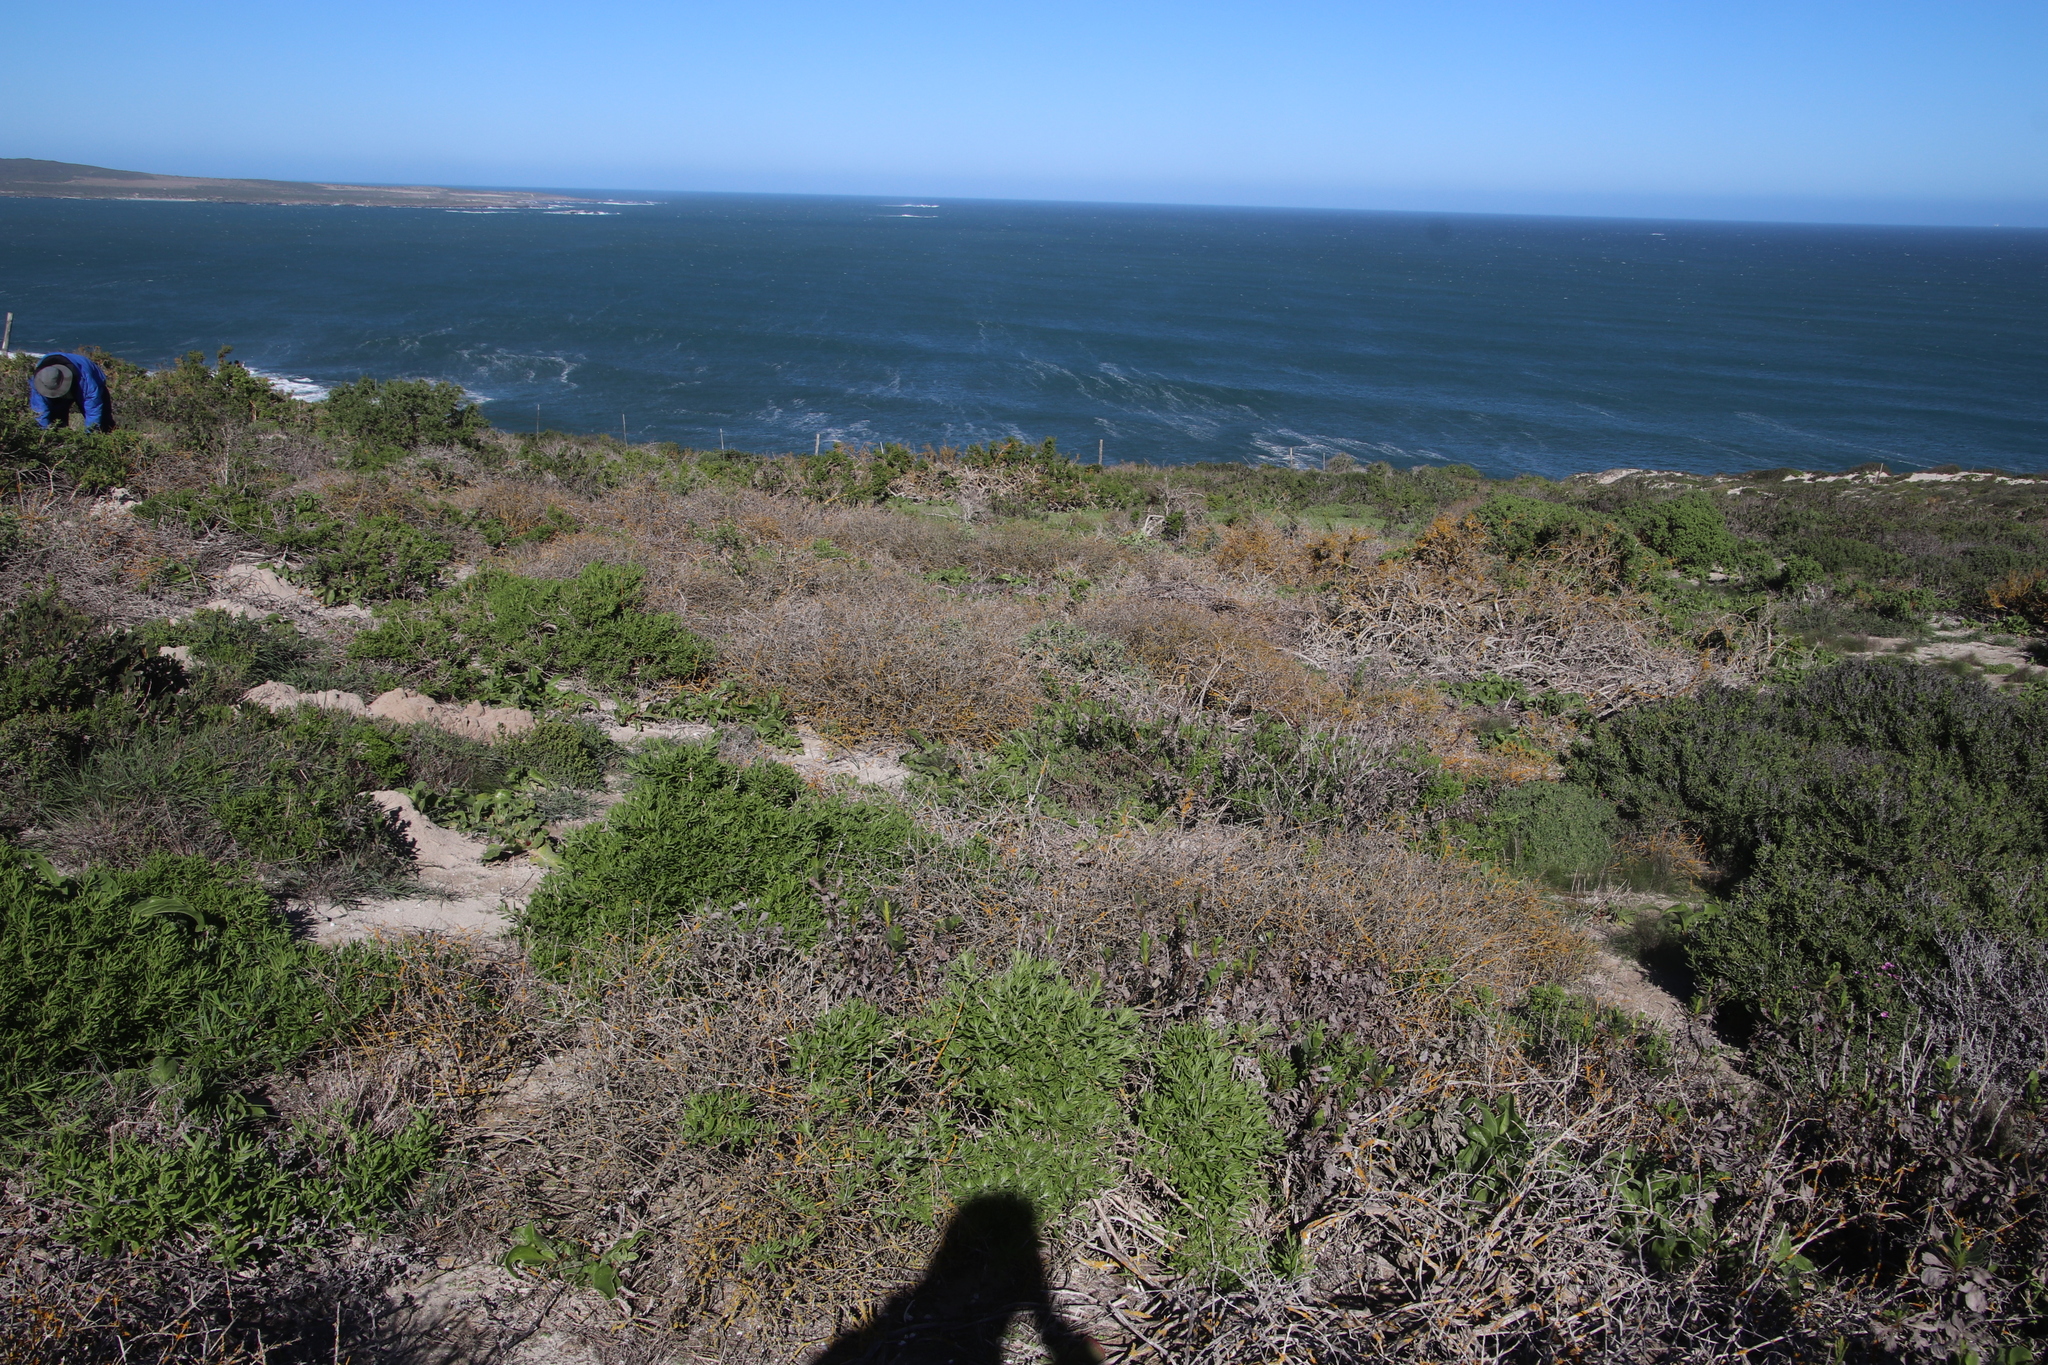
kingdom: Fungi
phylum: Ascomycota
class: Lecanoromycetes
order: Teloschistales
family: Teloschistaceae
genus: Dufourea
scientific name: Dufourea turbinata
